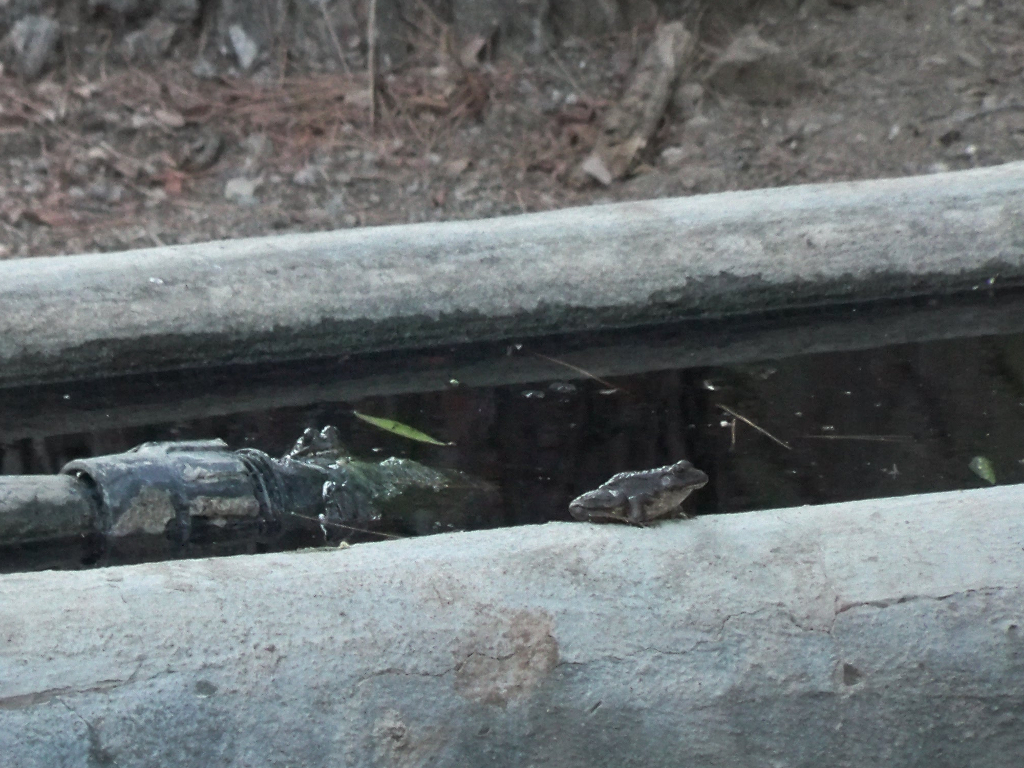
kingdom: Animalia
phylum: Chordata
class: Amphibia
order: Anura
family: Ranidae
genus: Pelophylax
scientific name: Pelophylax perezi
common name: Perez's frog
